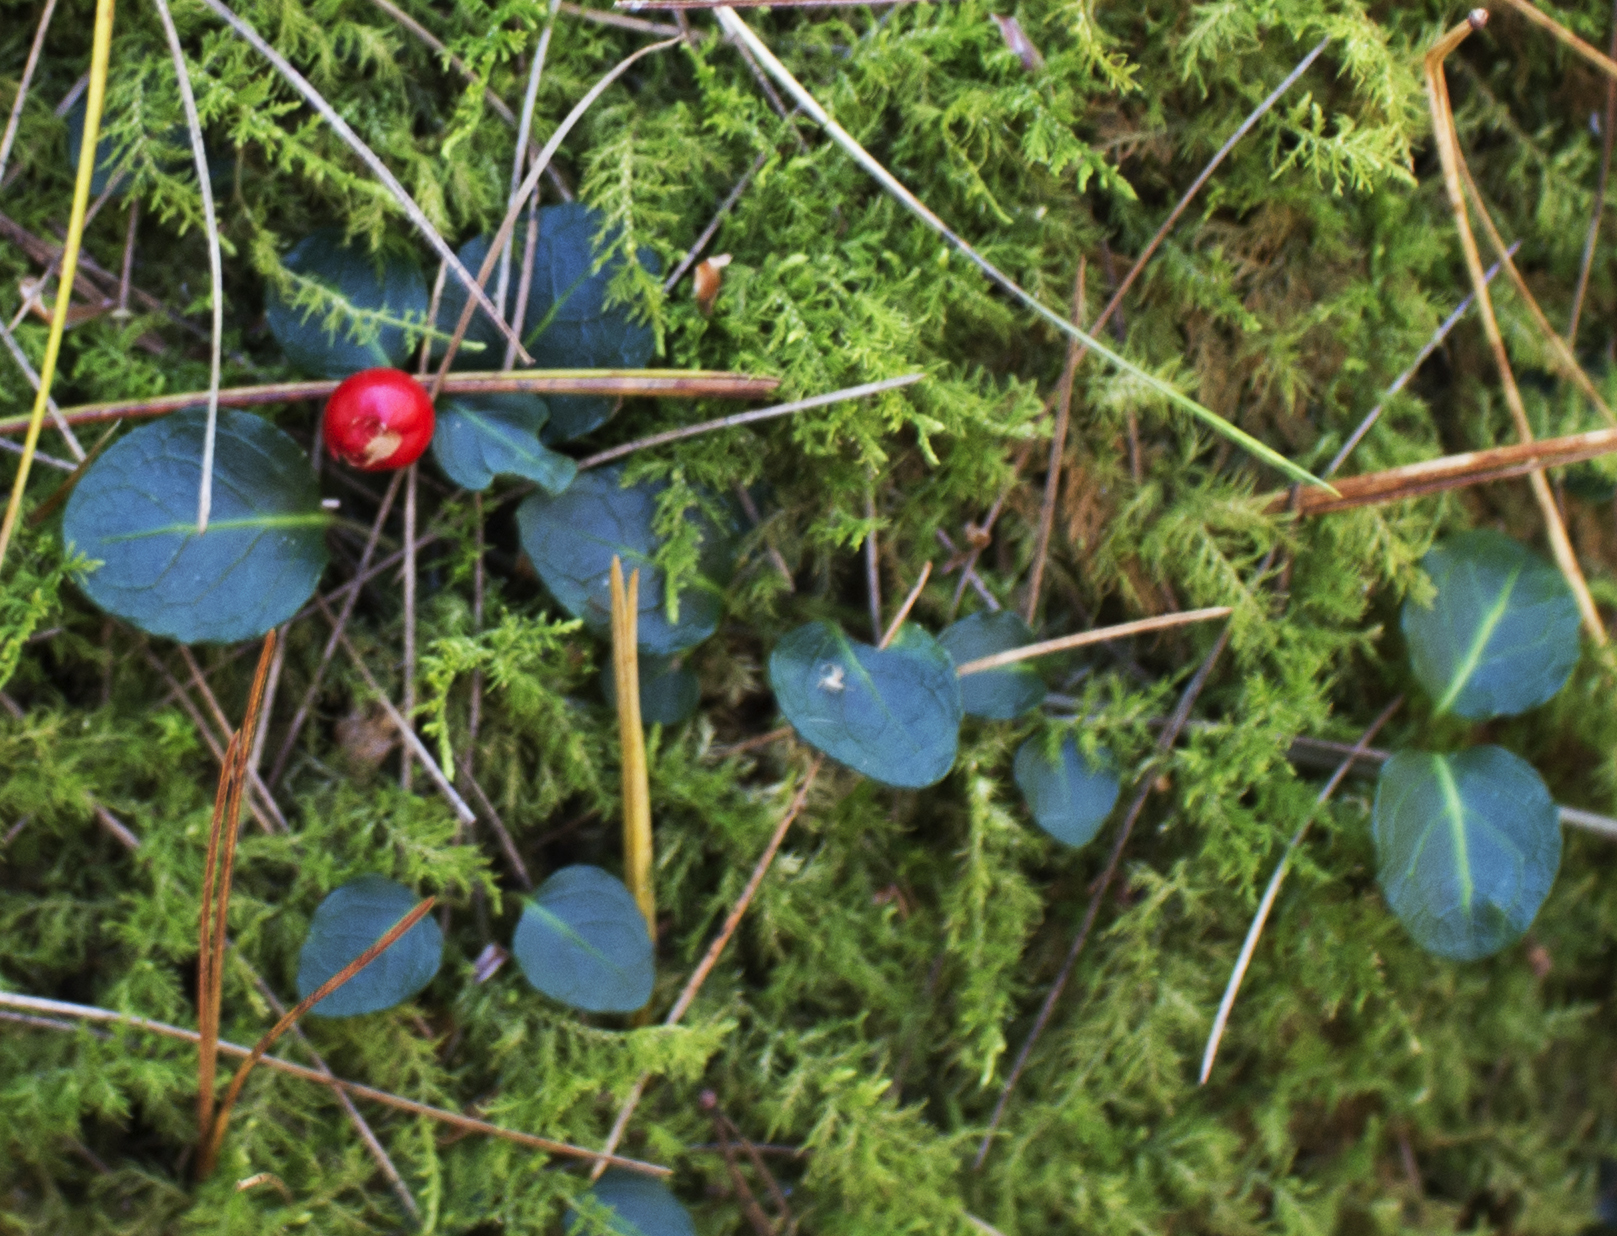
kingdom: Plantae
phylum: Tracheophyta
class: Magnoliopsida
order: Gentianales
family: Rubiaceae
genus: Mitchella
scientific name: Mitchella repens
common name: Partridge-berry
